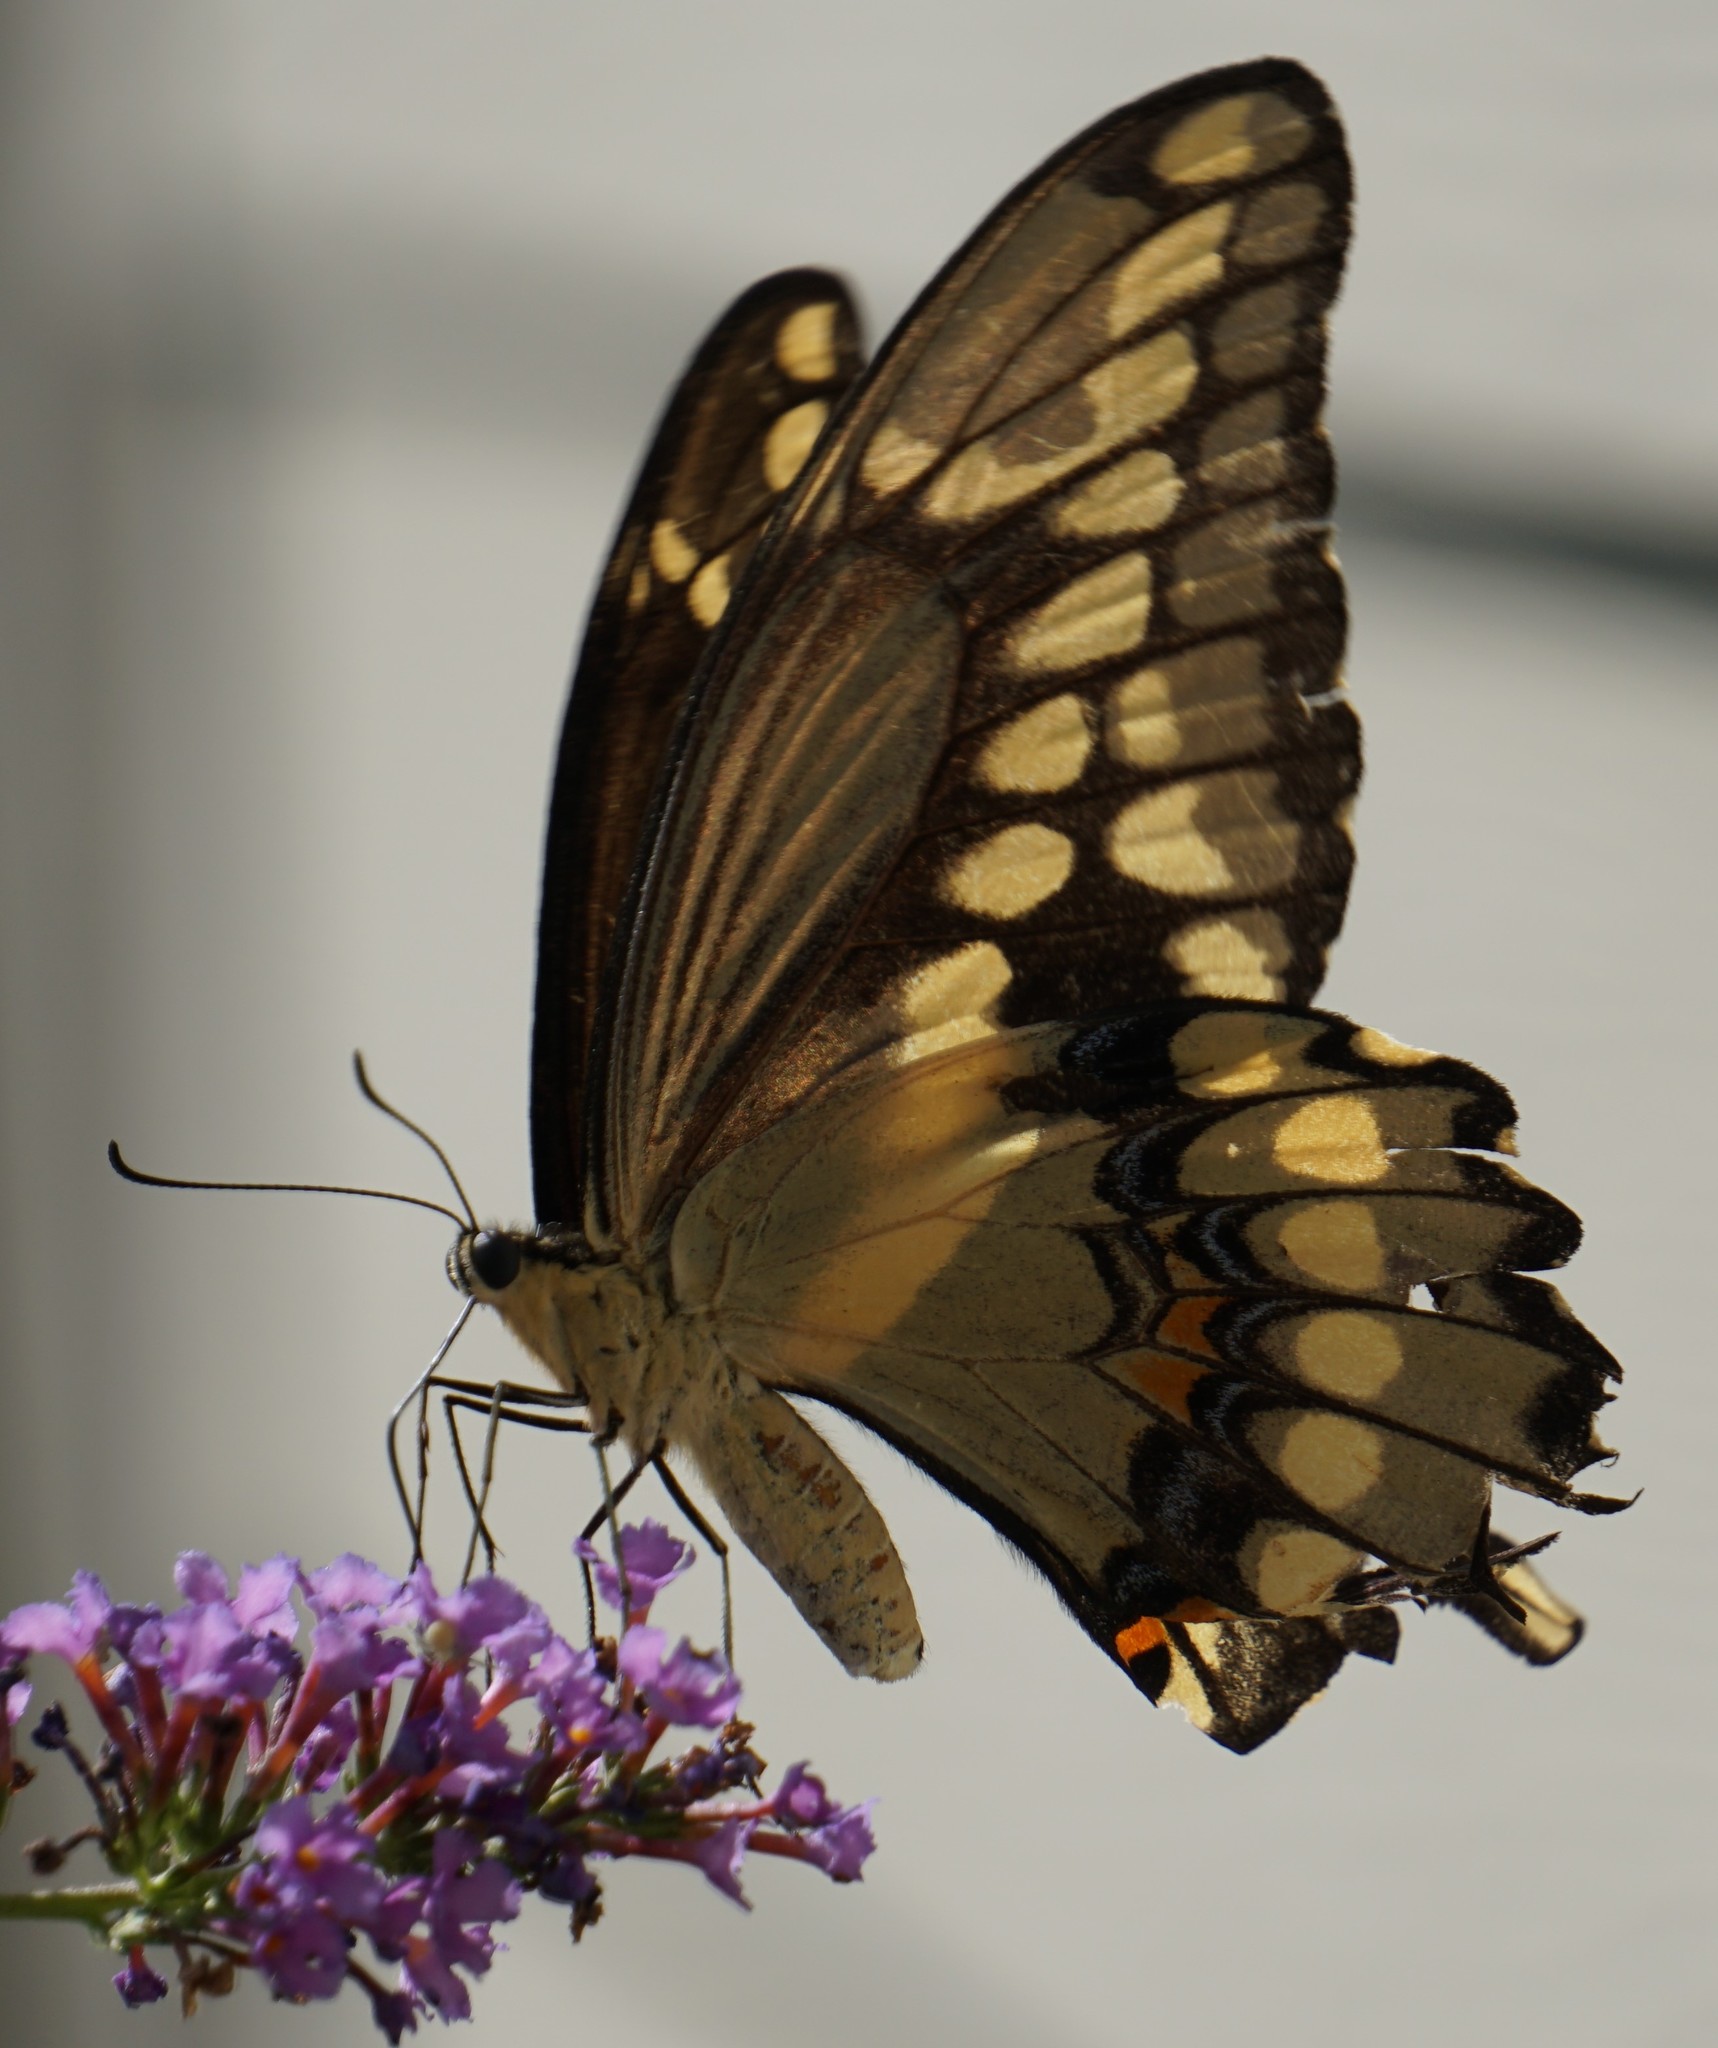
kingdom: Animalia
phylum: Arthropoda
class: Insecta
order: Lepidoptera
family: Papilionidae
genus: Papilio
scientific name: Papilio cresphontes
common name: Giant swallowtail
